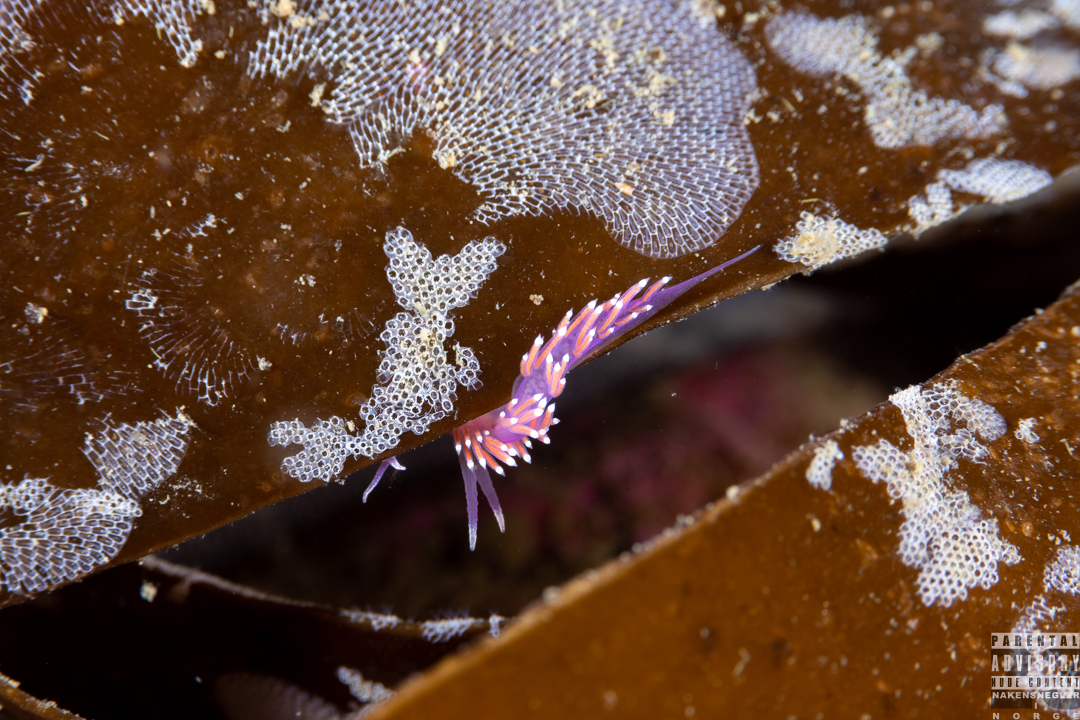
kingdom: Animalia
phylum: Mollusca
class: Gastropoda
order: Nudibranchia
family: Flabellinidae
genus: Edmundsella
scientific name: Edmundsella pedata
